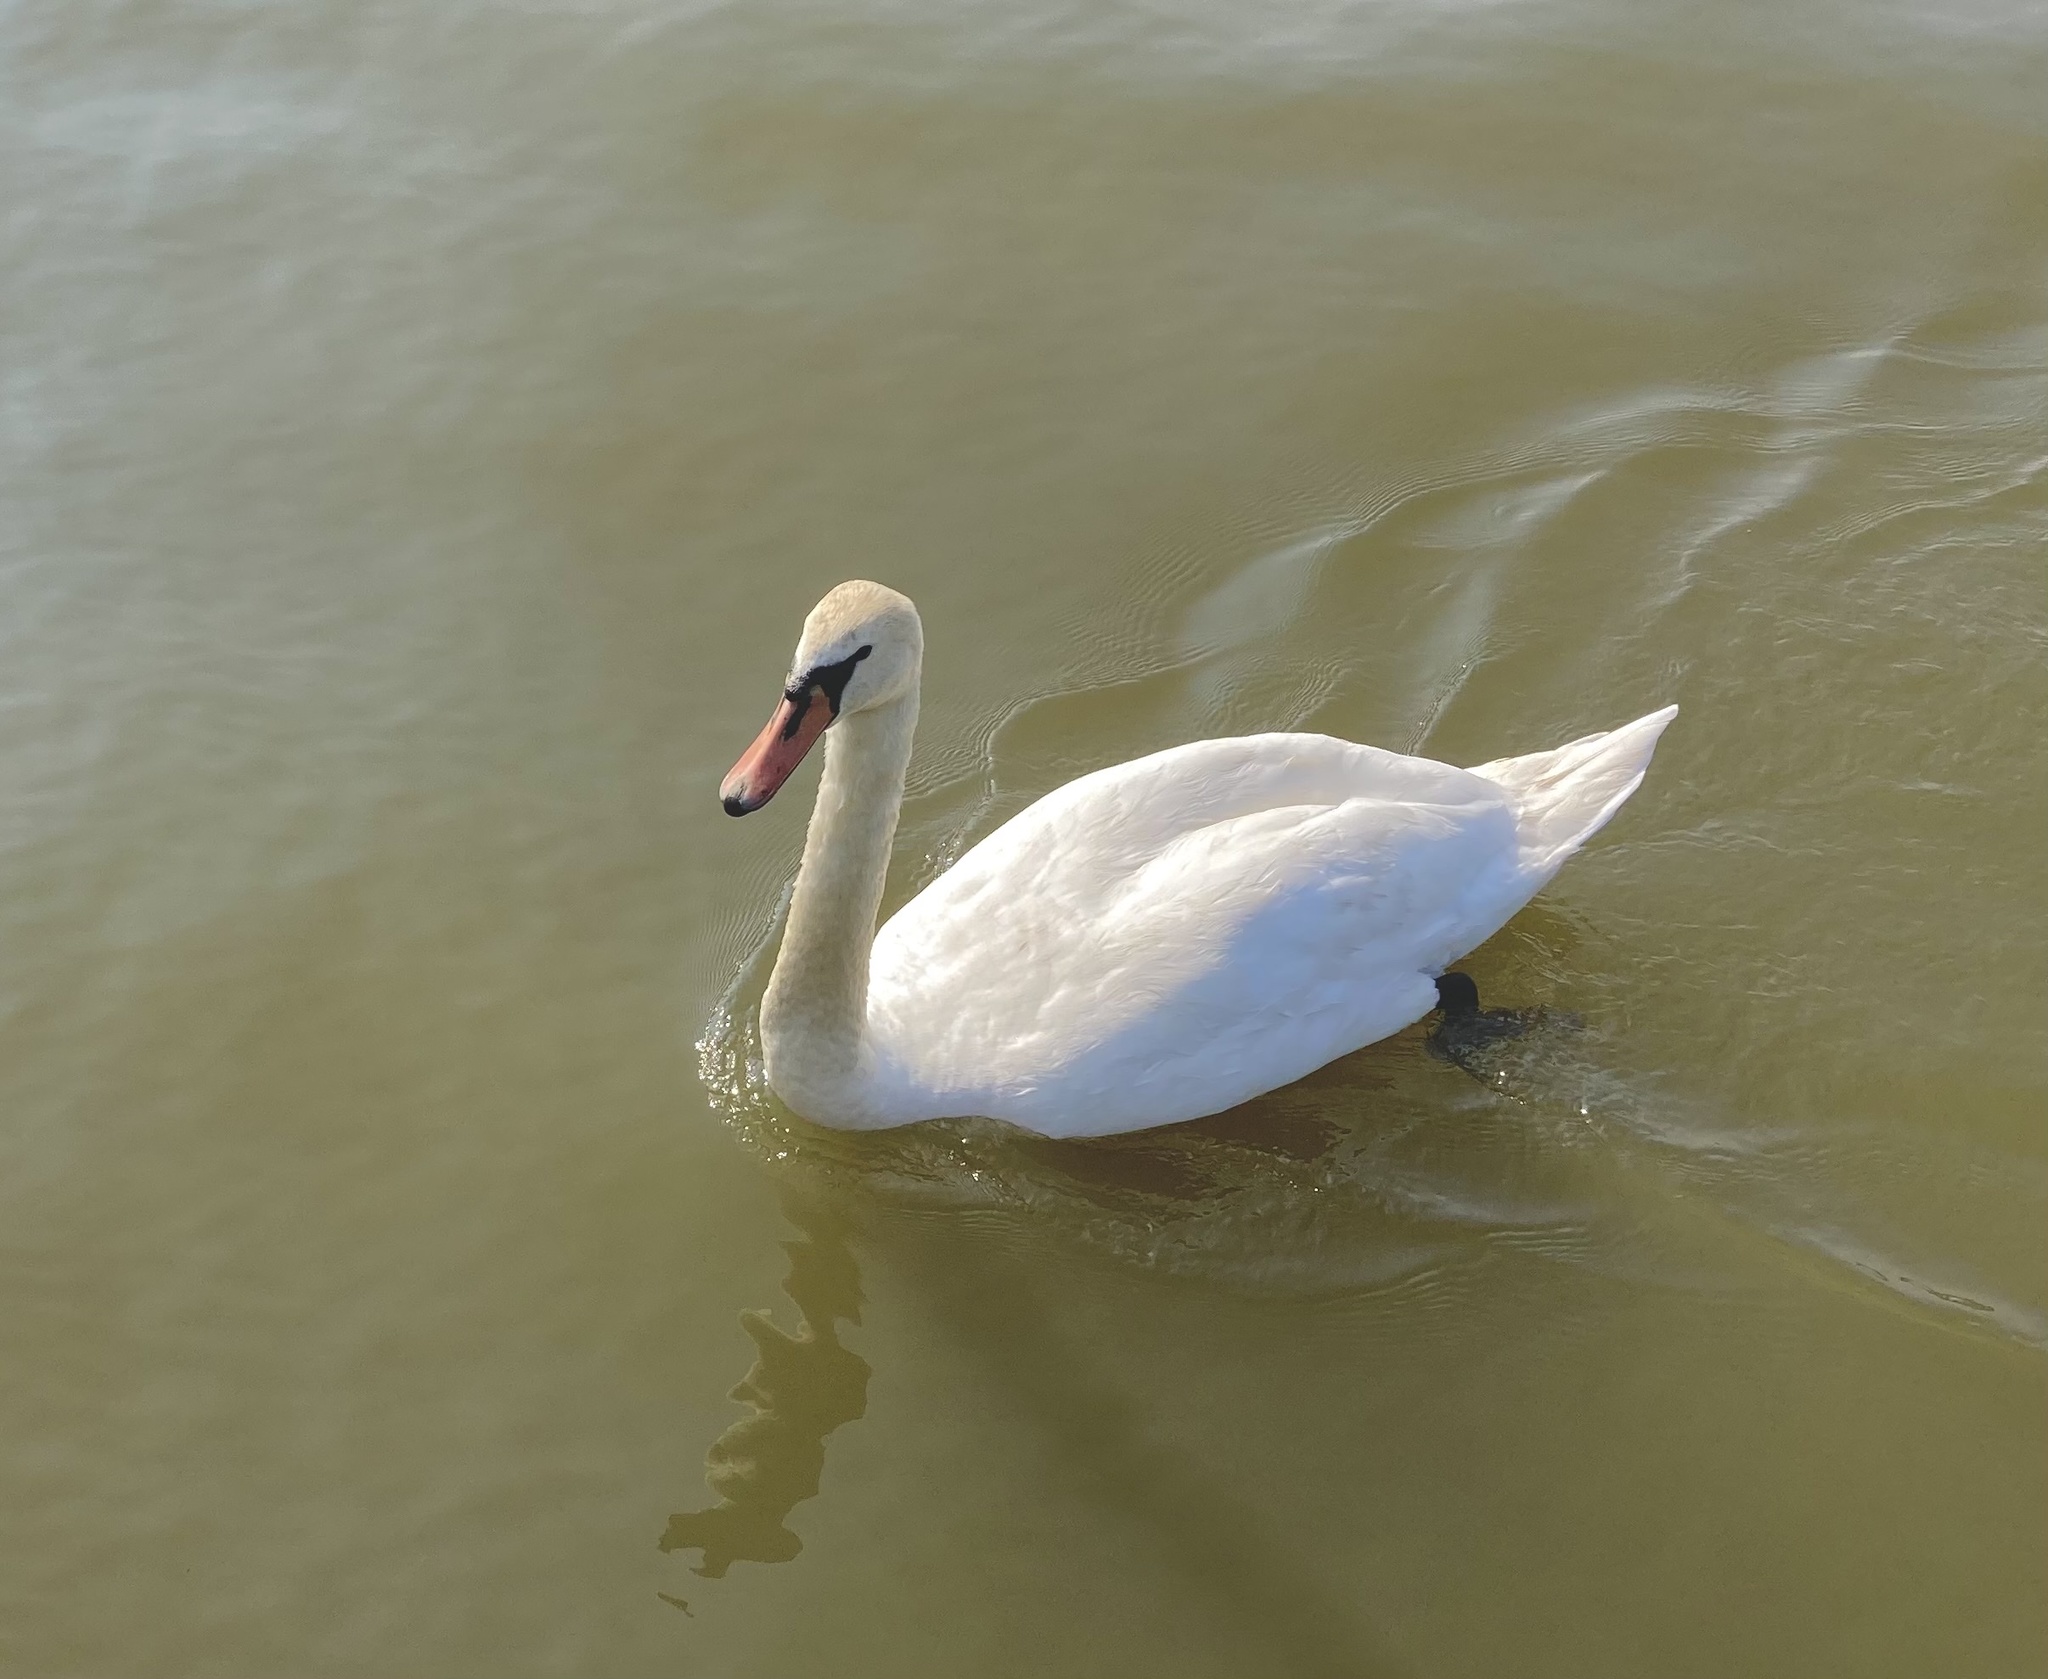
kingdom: Animalia
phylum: Chordata
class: Aves
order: Anseriformes
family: Anatidae
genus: Cygnus
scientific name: Cygnus olor
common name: Mute swan
